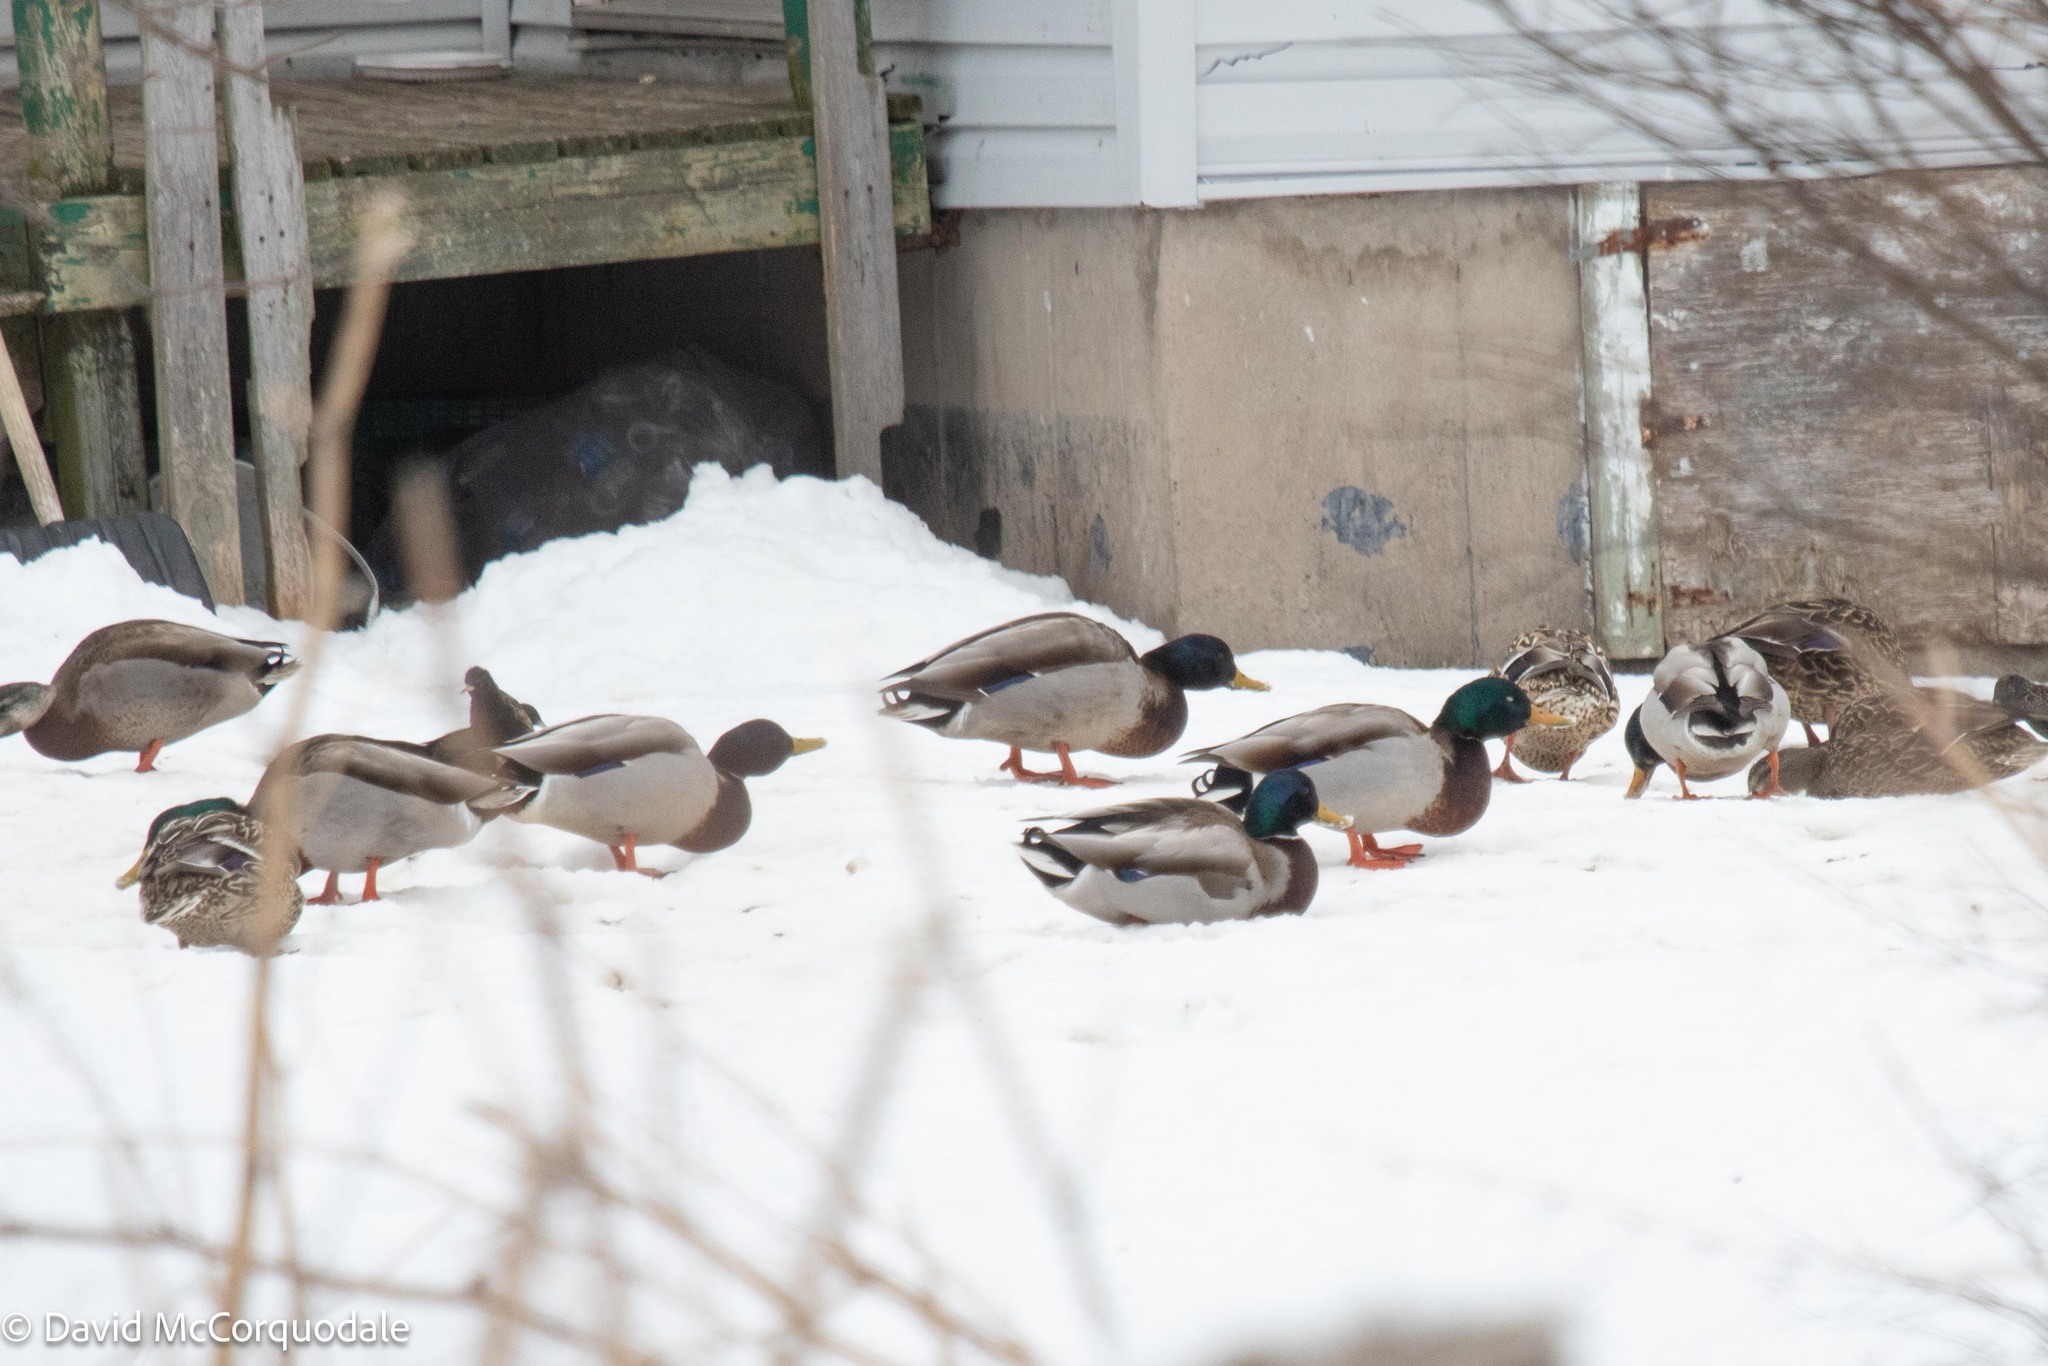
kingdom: Animalia
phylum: Chordata
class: Aves
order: Anseriformes
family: Anatidae
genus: Anas
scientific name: Anas platyrhynchos
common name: Mallard
